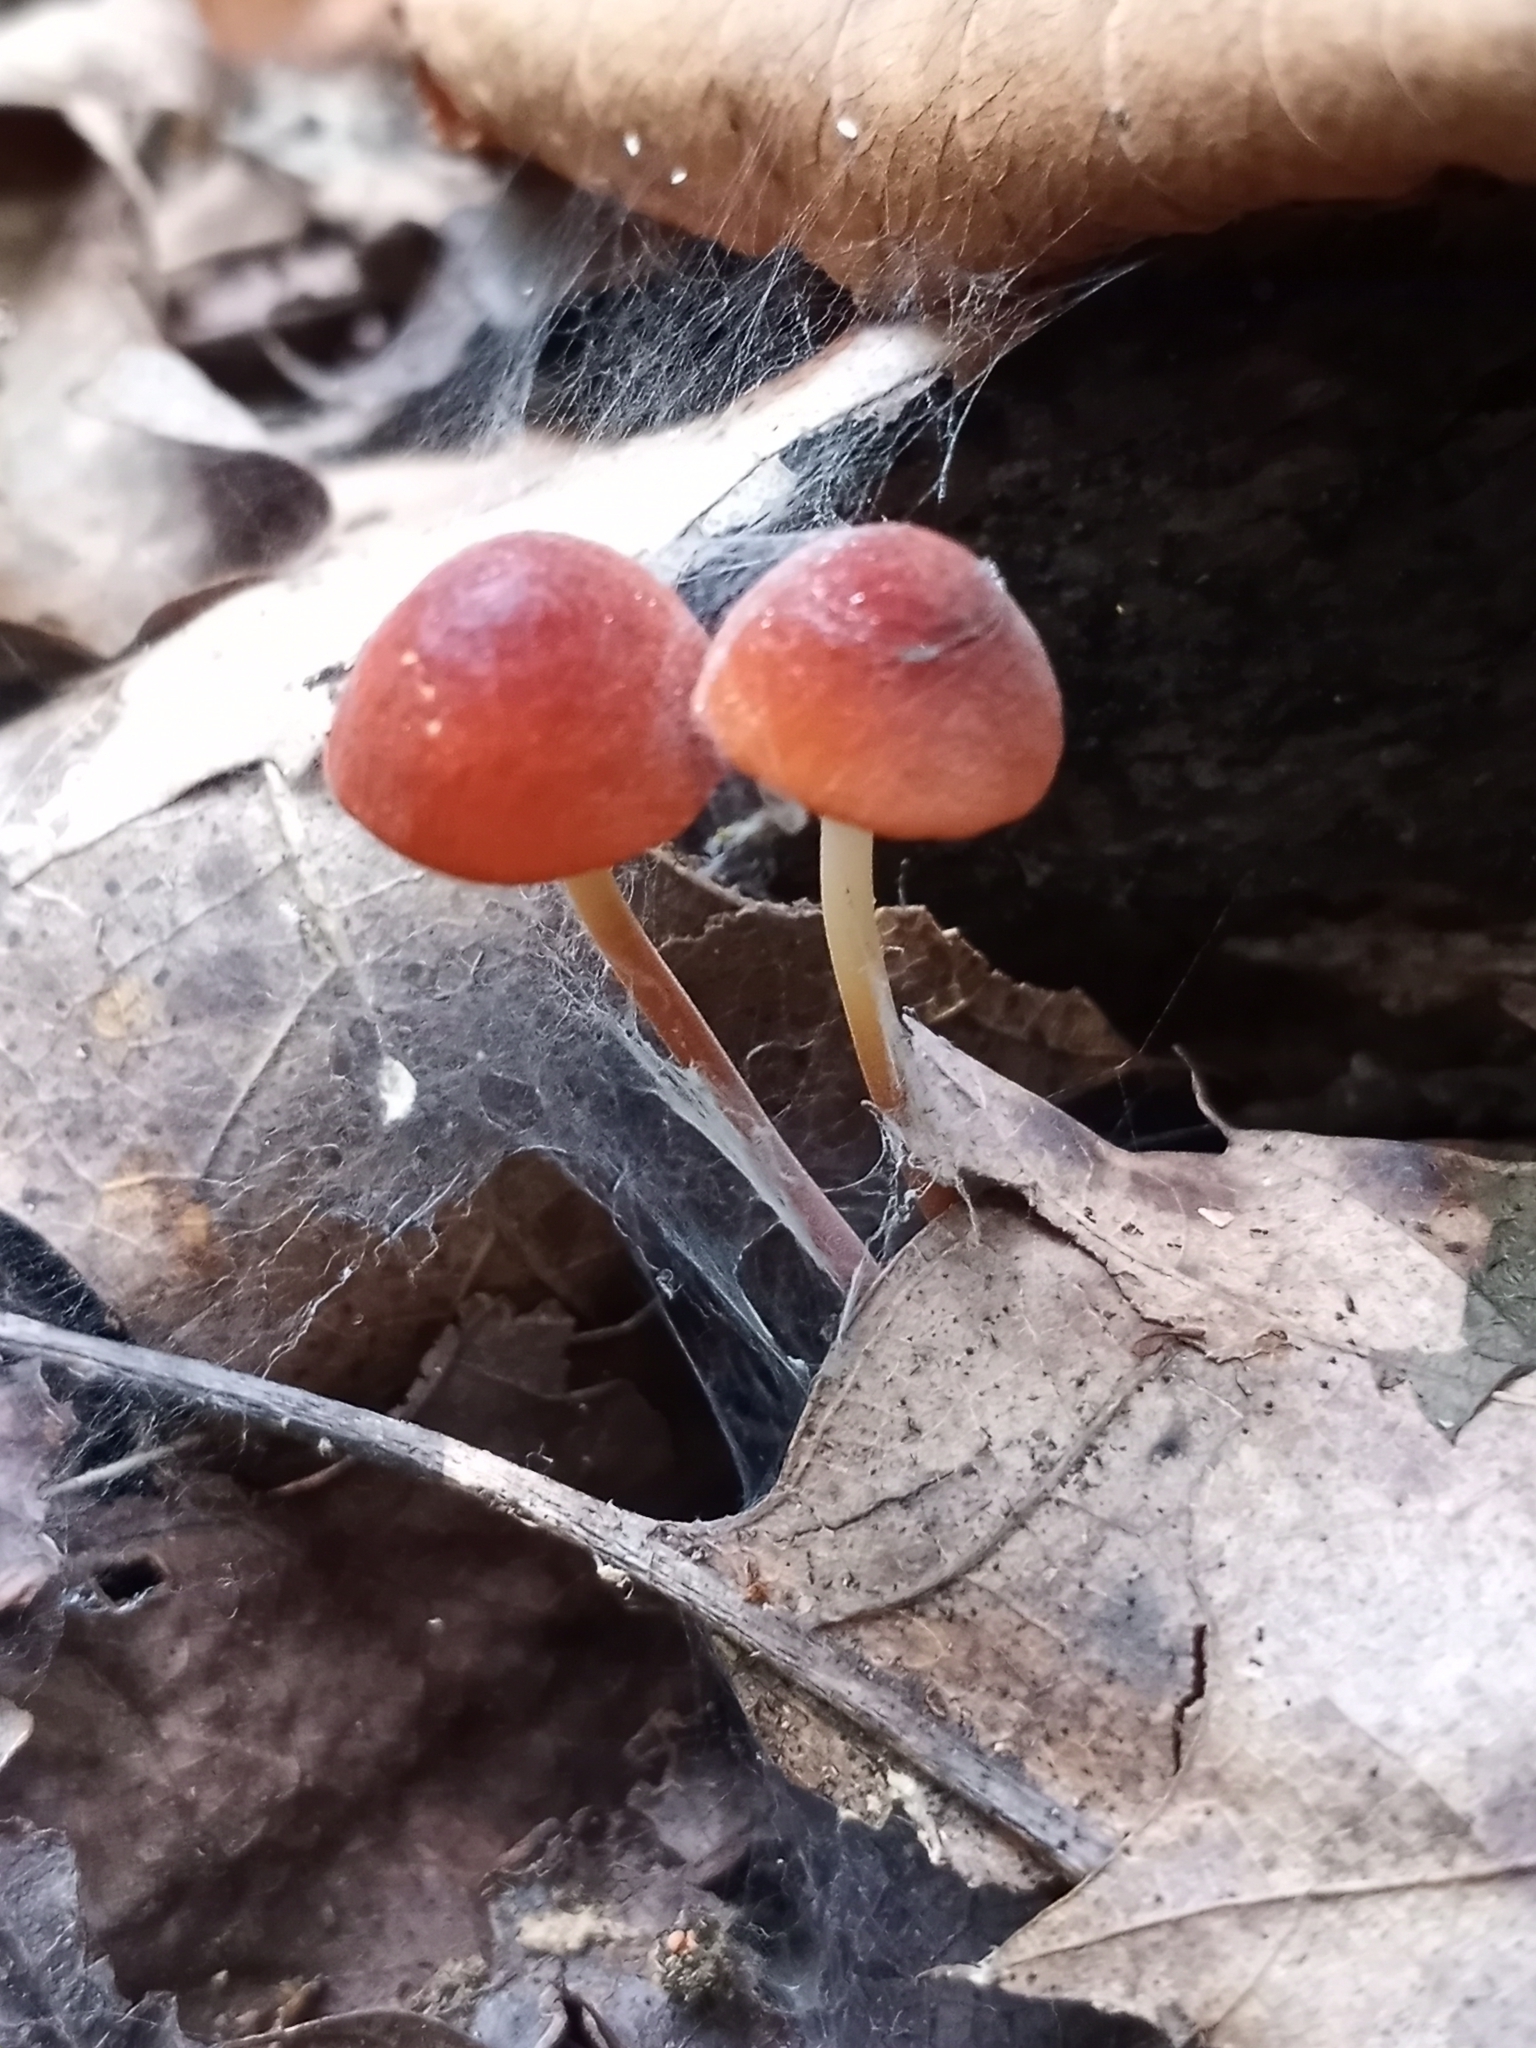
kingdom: Fungi
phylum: Basidiomycota
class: Agaricomycetes
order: Agaricales
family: Marasmiaceae
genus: Marasmius
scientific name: Marasmius sullivantii
